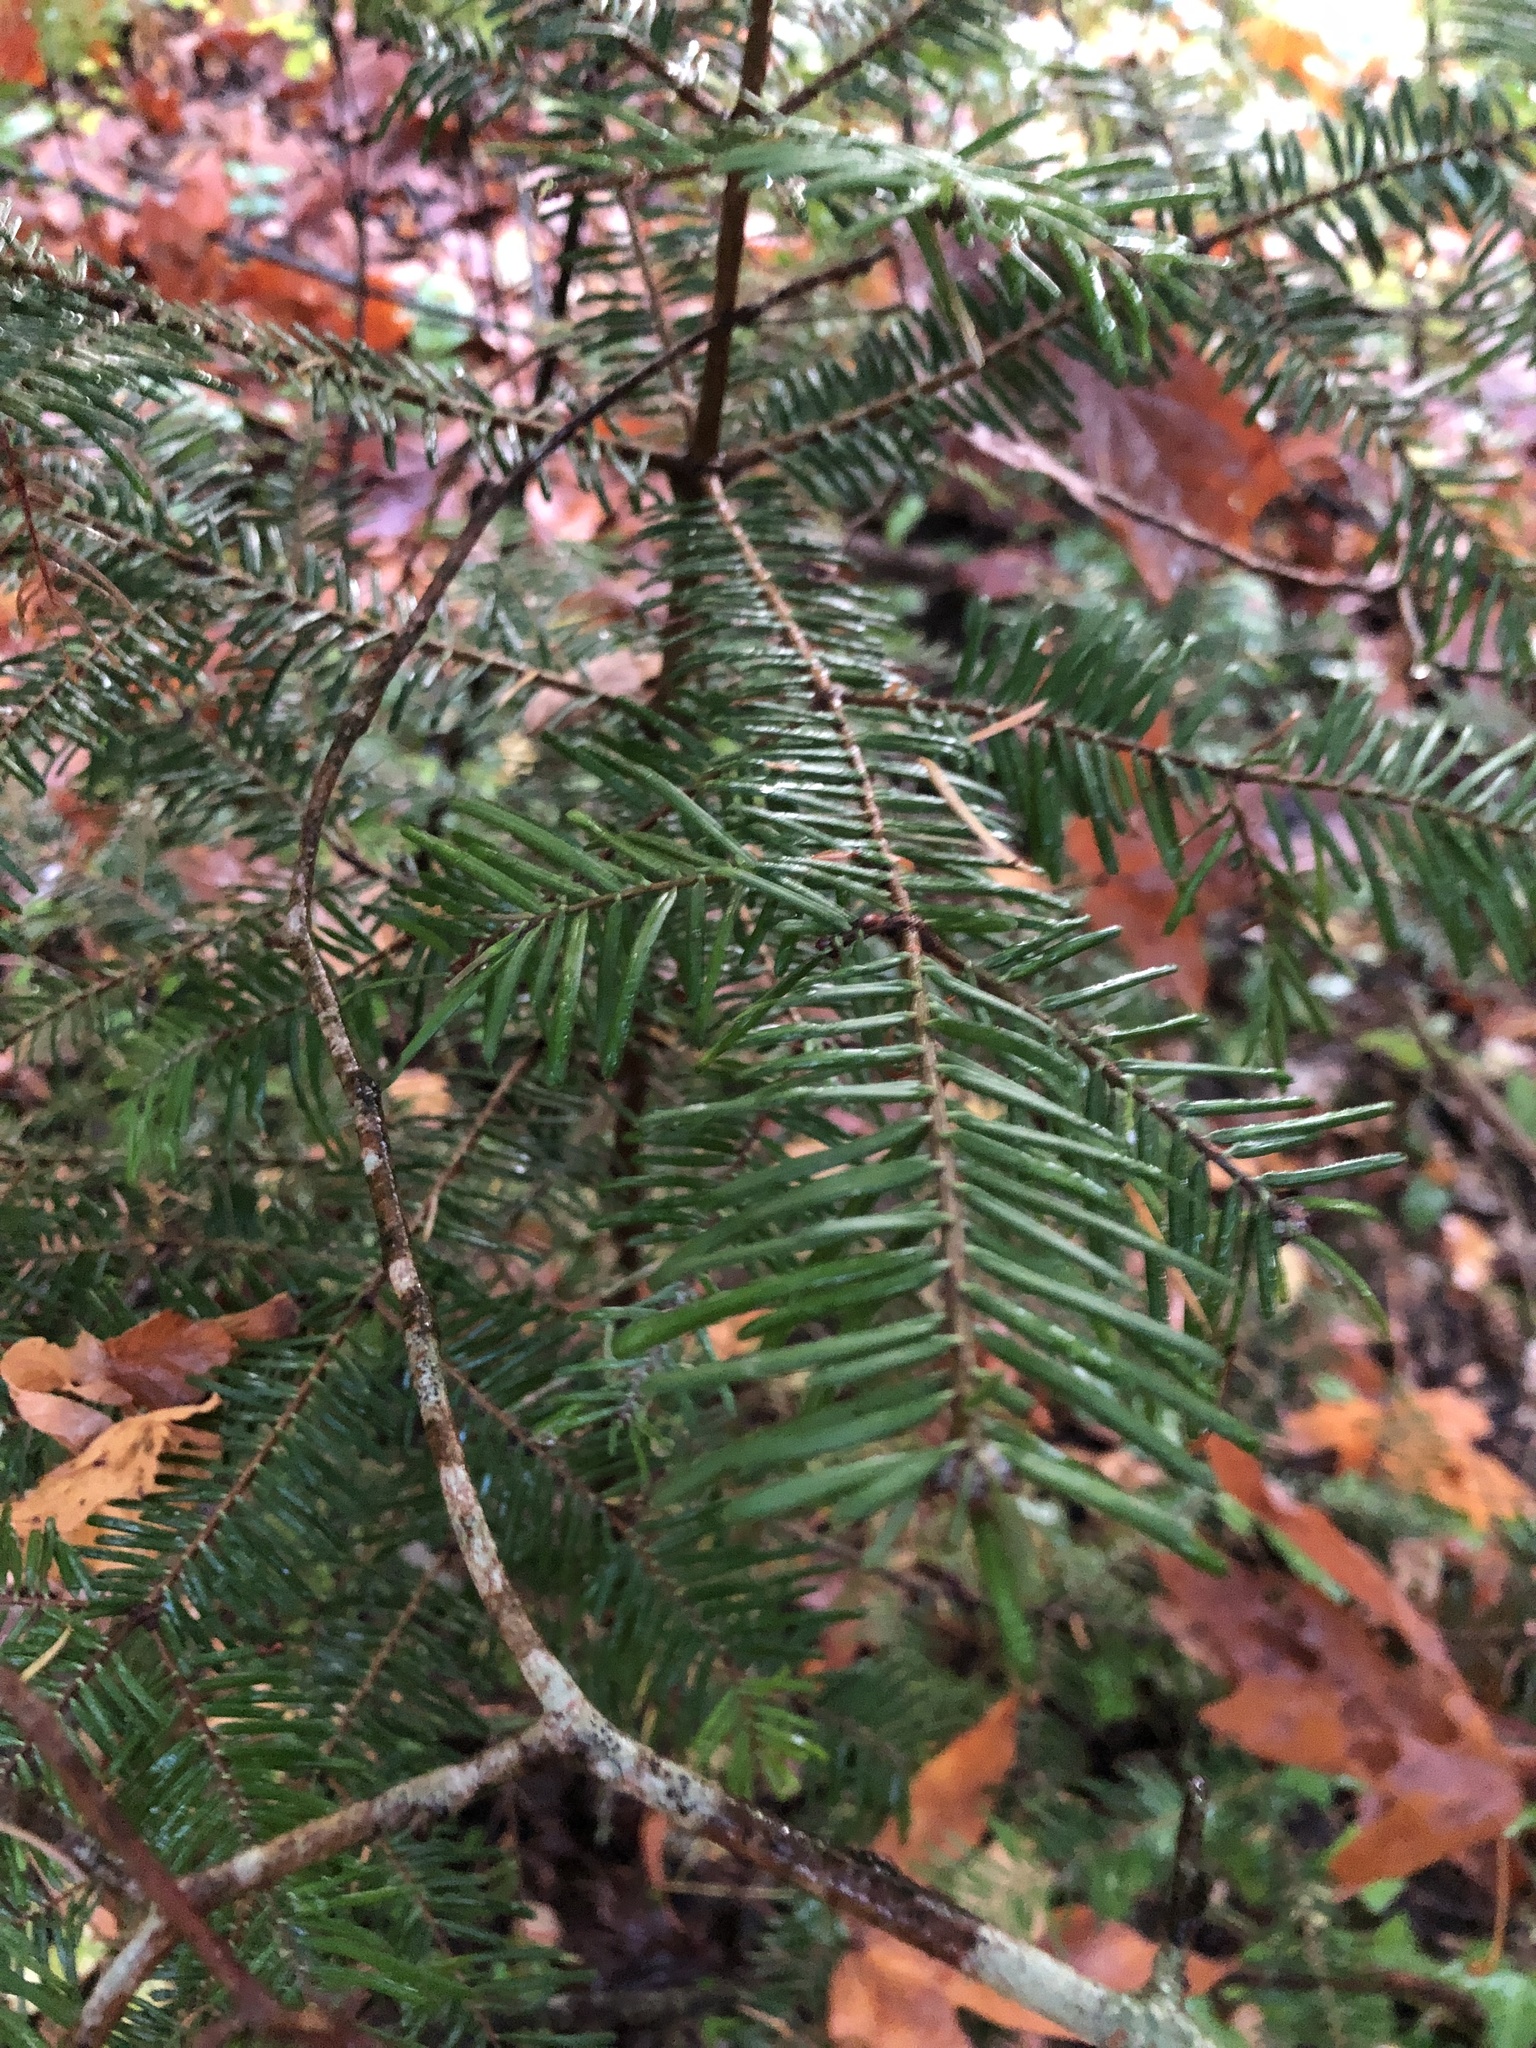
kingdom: Plantae
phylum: Tracheophyta
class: Pinopsida
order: Pinales
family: Pinaceae
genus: Abies
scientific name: Abies grandis
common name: Giant fir
